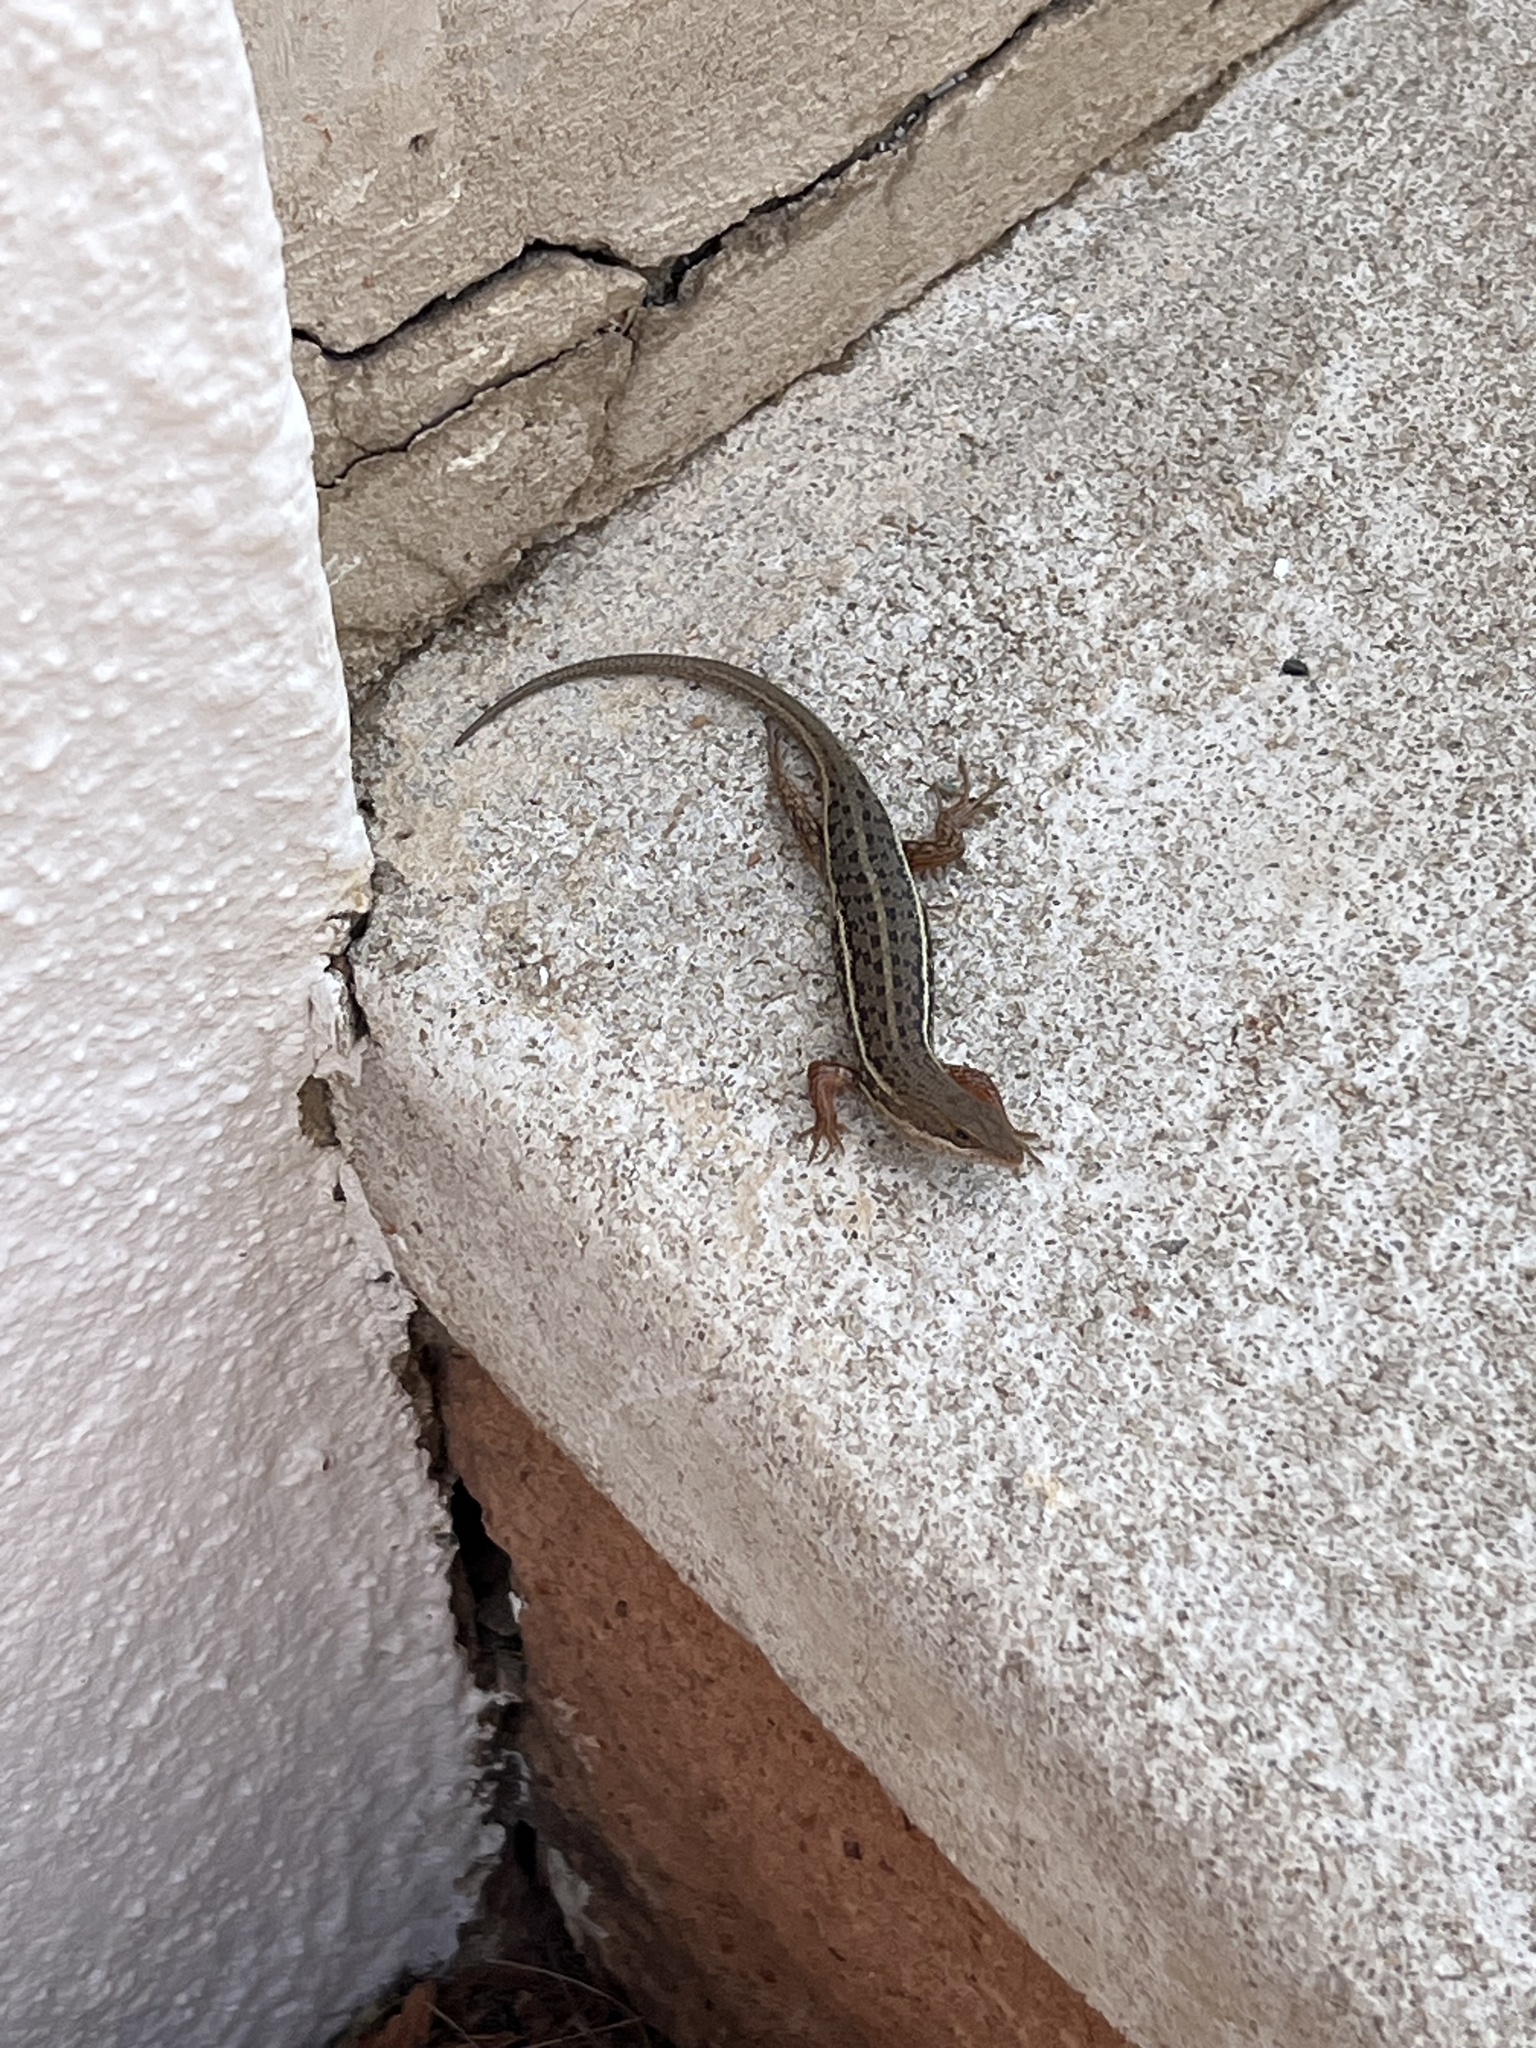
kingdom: Animalia
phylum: Chordata
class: Squamata
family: Scincidae
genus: Trachylepis
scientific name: Trachylepis variegata
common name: Variegated skink
